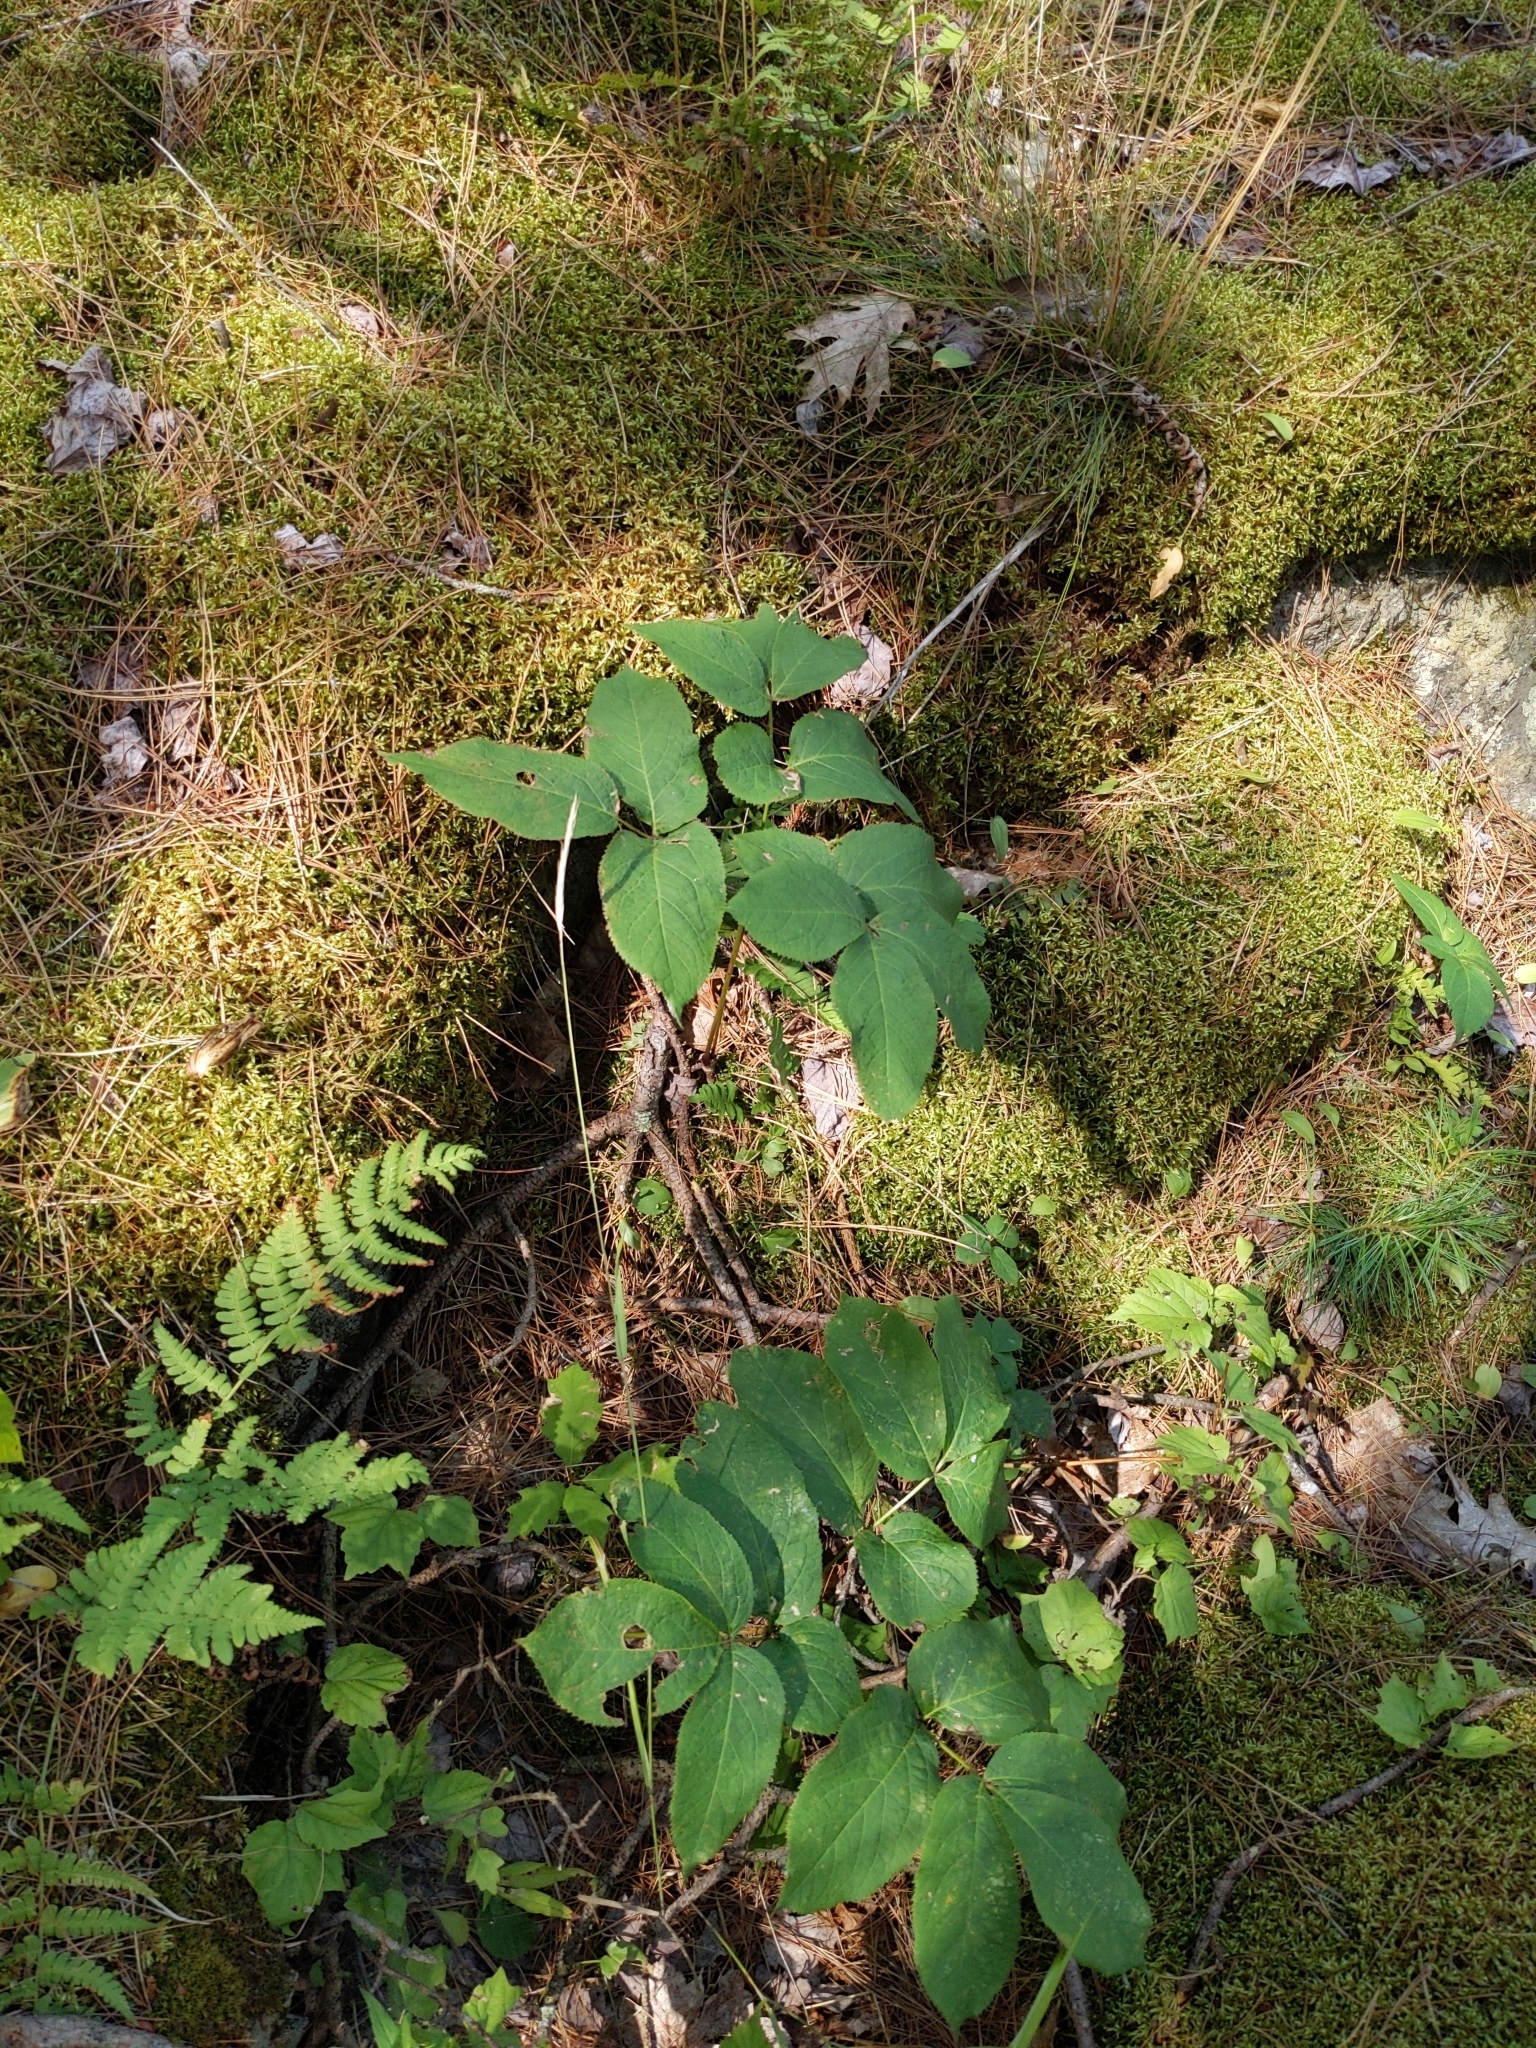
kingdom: Plantae
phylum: Tracheophyta
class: Magnoliopsida
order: Apiales
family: Araliaceae
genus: Aralia
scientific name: Aralia nudicaulis
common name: Wild sarsaparilla
